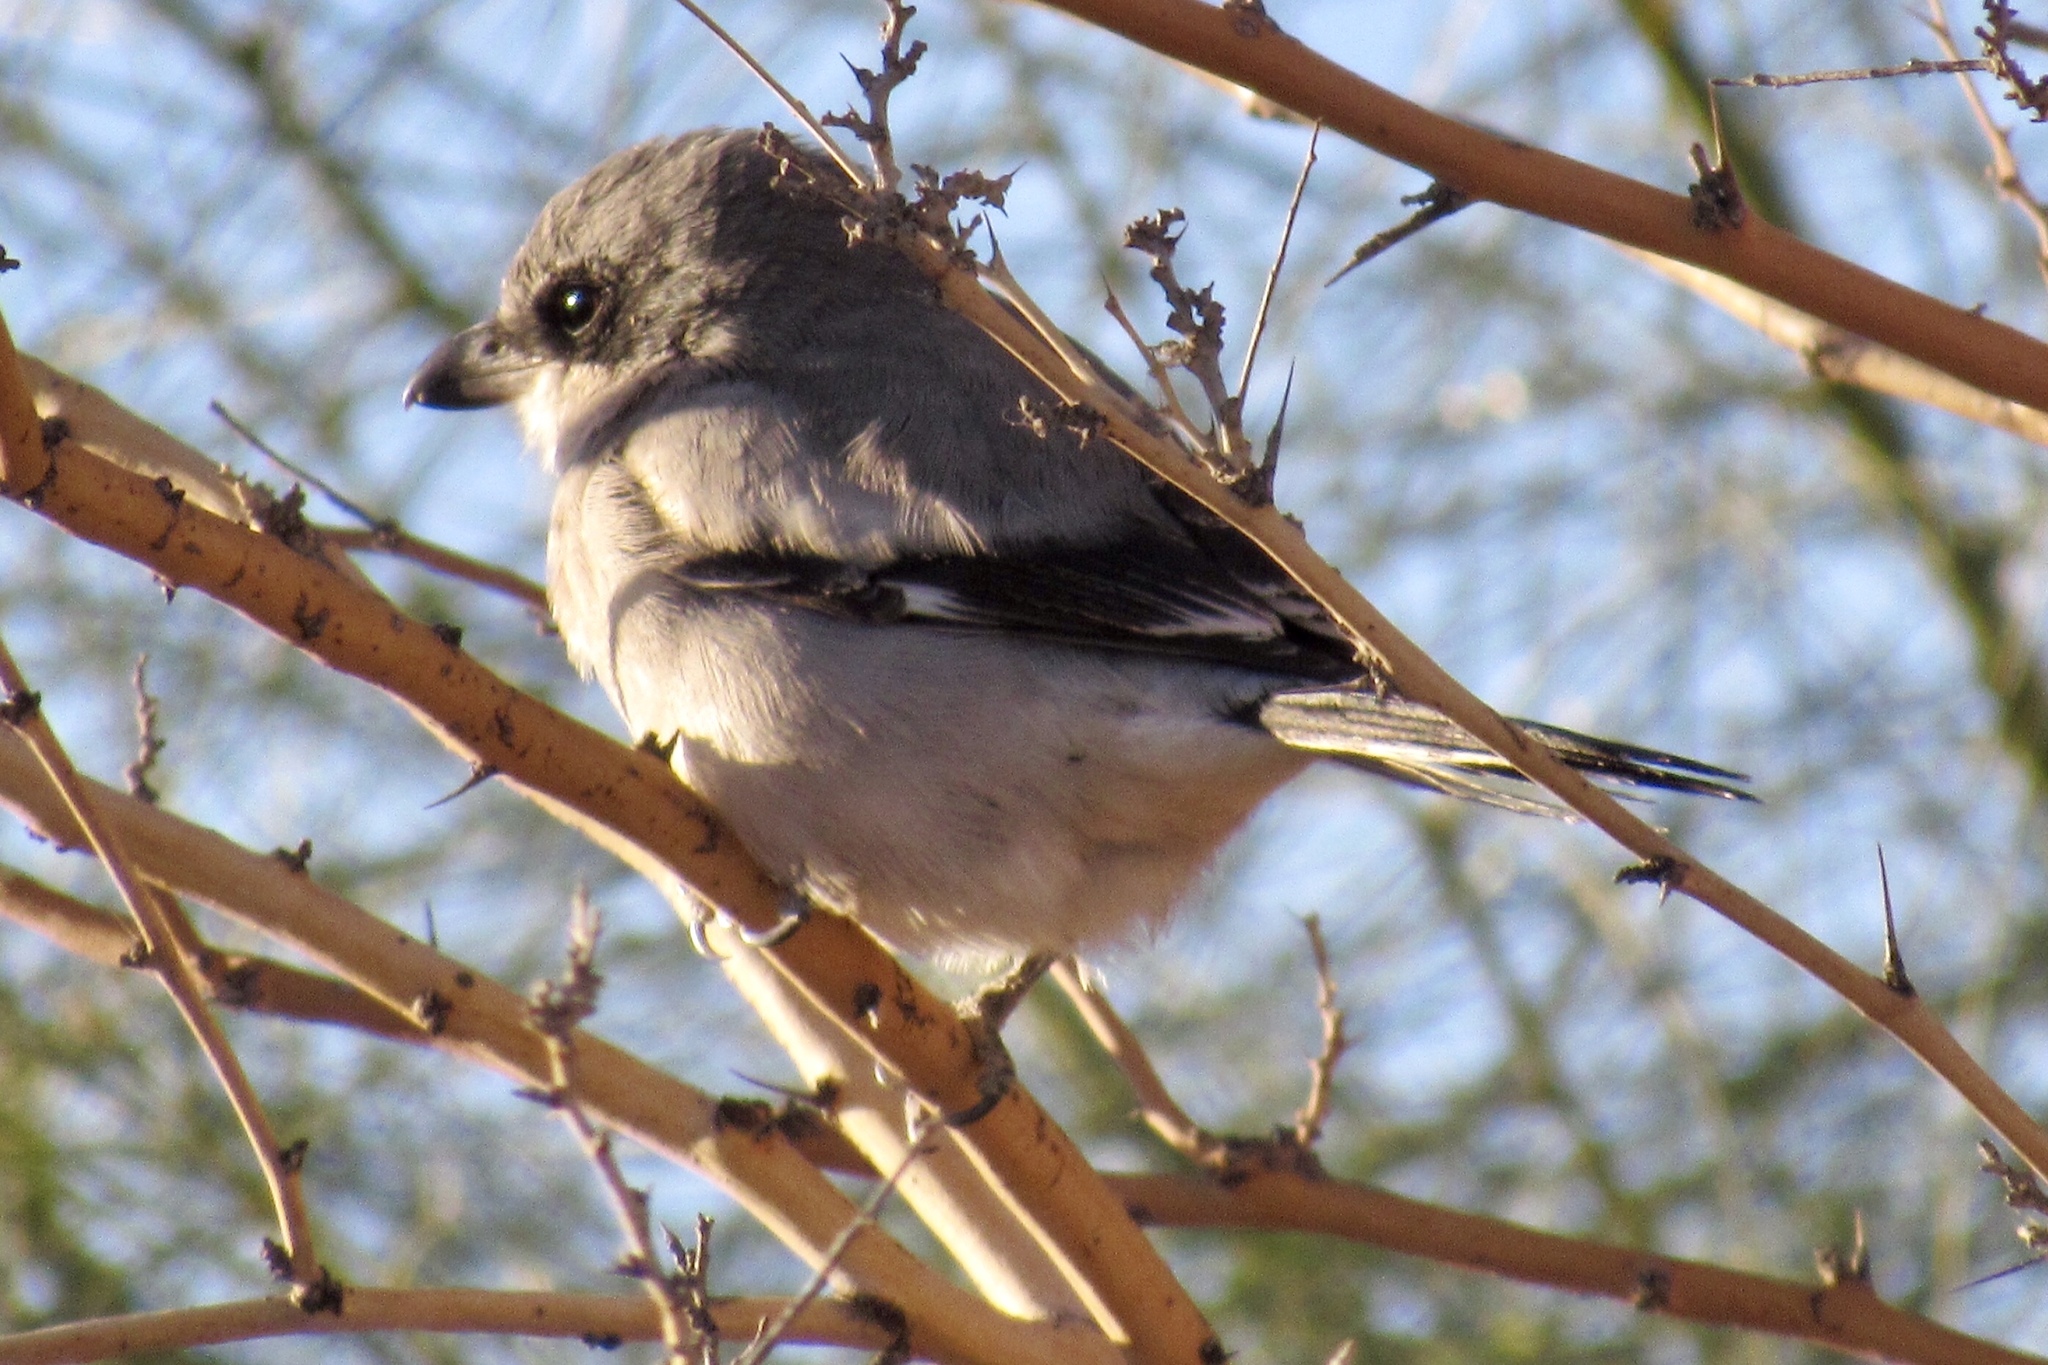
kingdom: Animalia
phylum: Chordata
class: Aves
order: Passeriformes
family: Laniidae
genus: Lanius
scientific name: Lanius ludovicianus
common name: Loggerhead shrike
